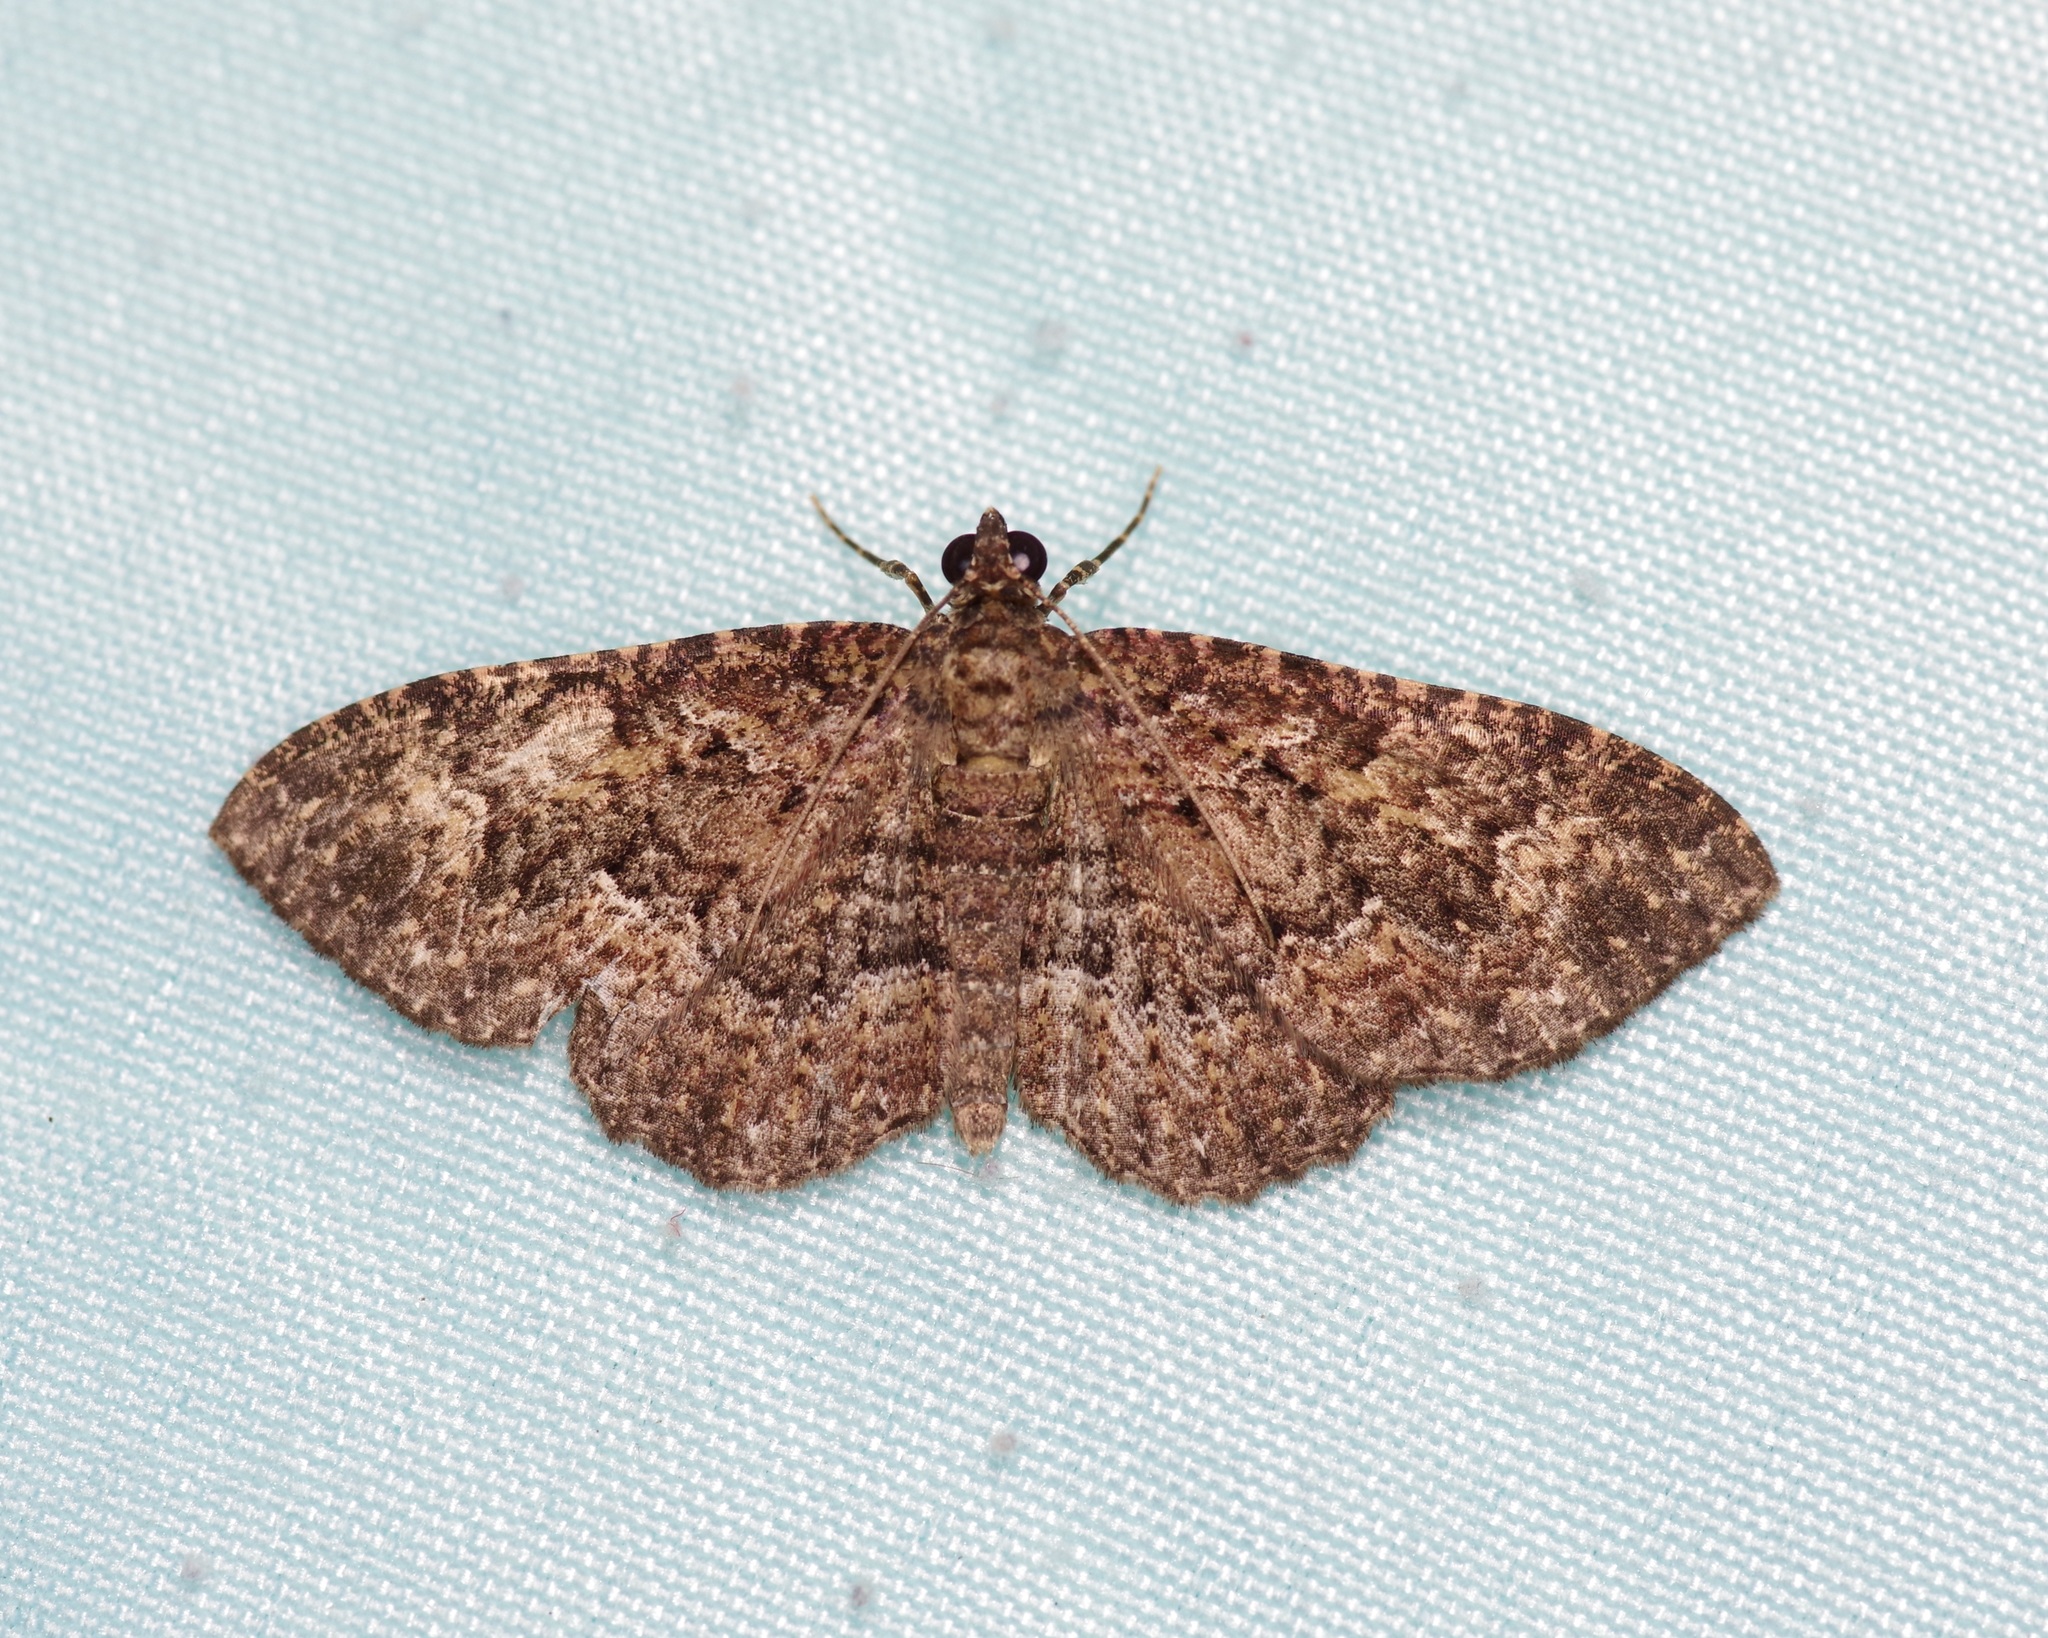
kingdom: Animalia
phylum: Arthropoda
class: Insecta
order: Lepidoptera
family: Geometridae
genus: Disclisioprocta
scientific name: Disclisioprocta stellata
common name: Somber carpet
